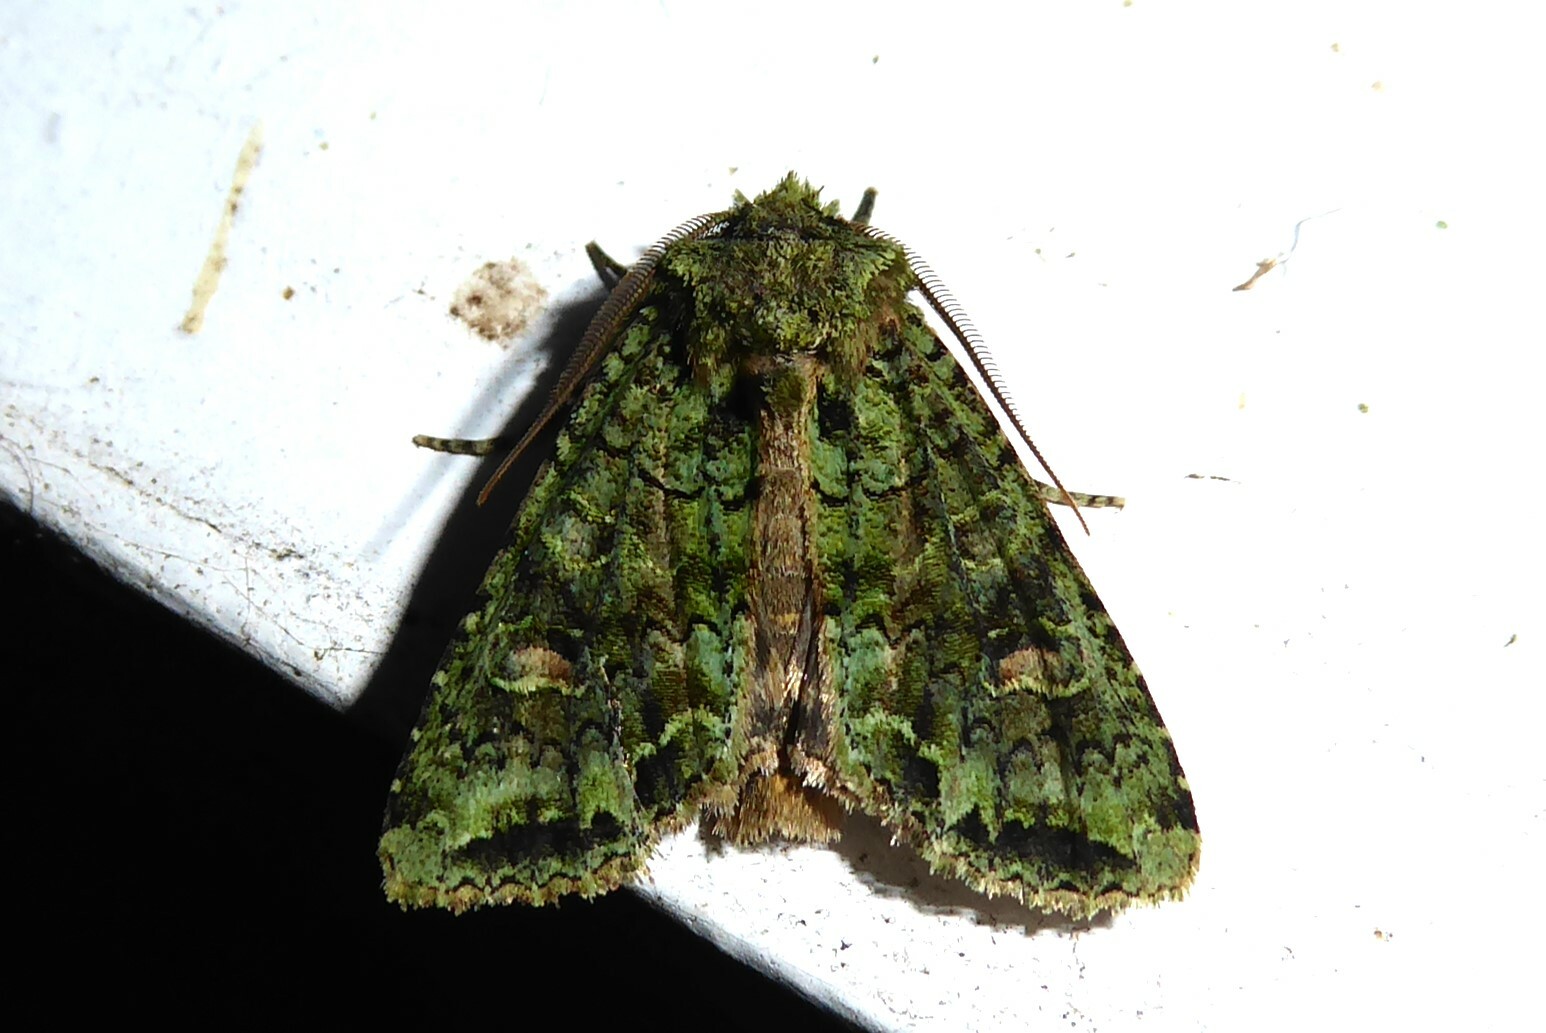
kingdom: Animalia
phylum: Arthropoda
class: Insecta
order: Lepidoptera
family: Noctuidae
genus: Ichneutica
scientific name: Ichneutica
